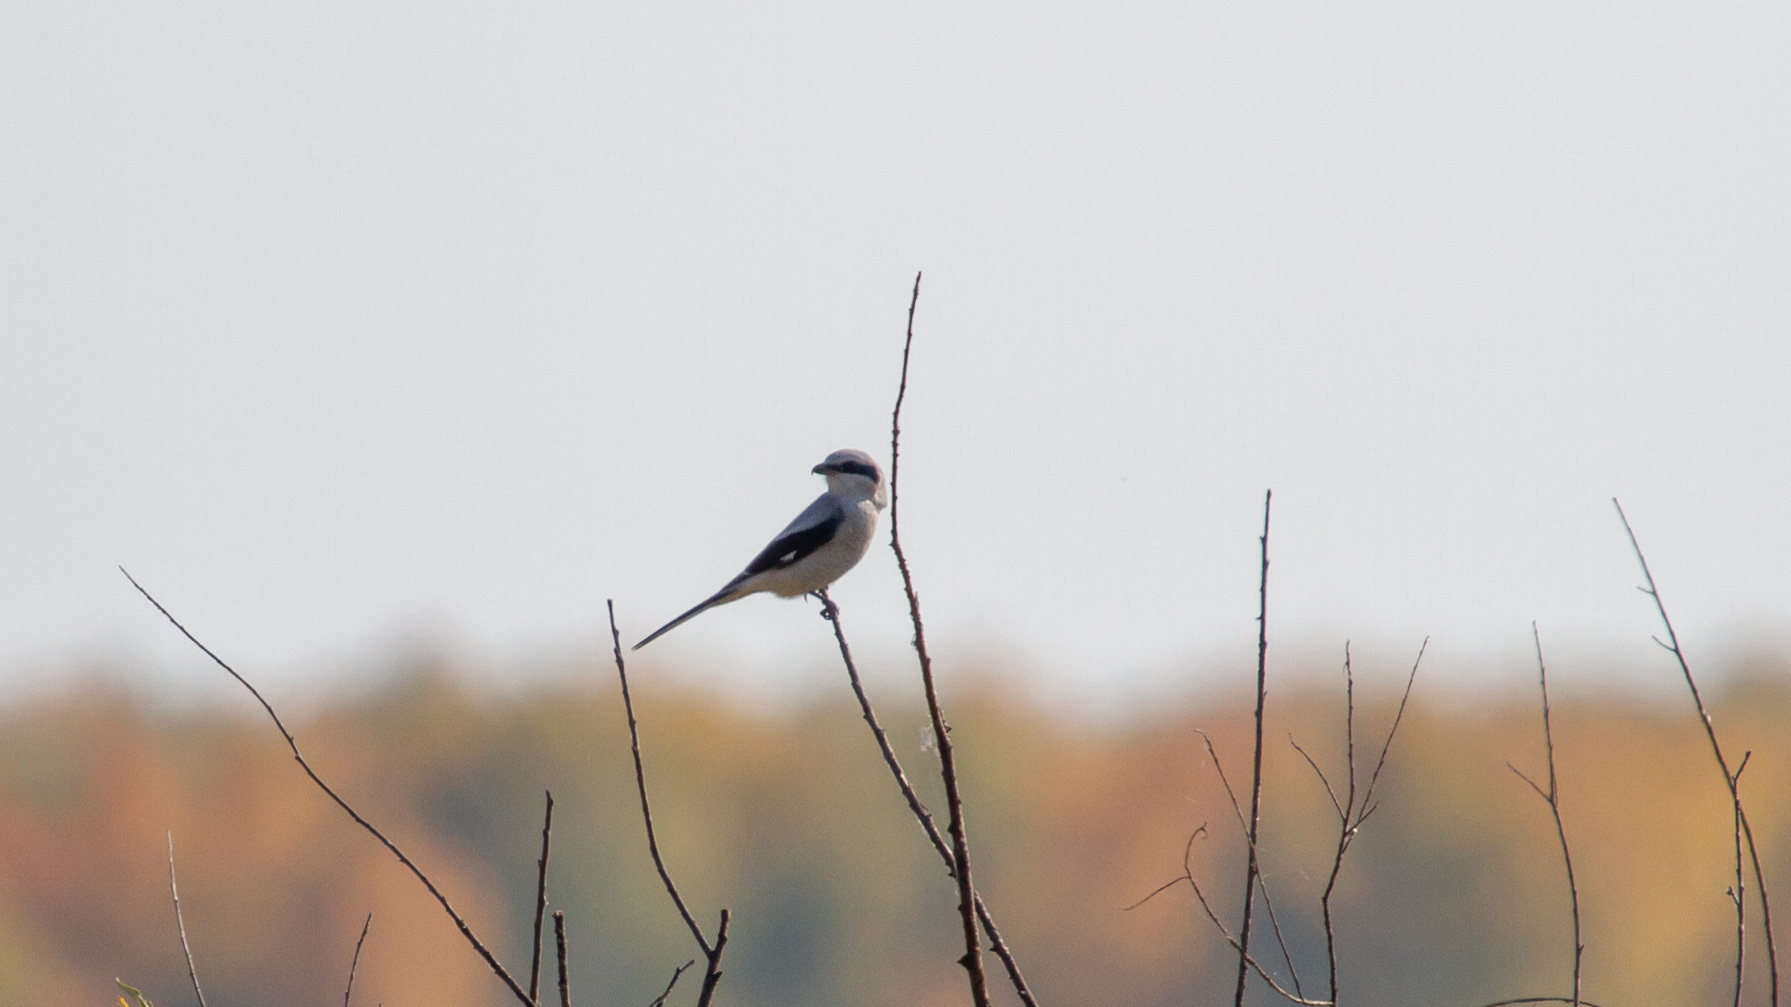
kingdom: Animalia
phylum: Chordata
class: Aves
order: Passeriformes
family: Laniidae
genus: Lanius
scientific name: Lanius excubitor
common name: Great grey shrike
